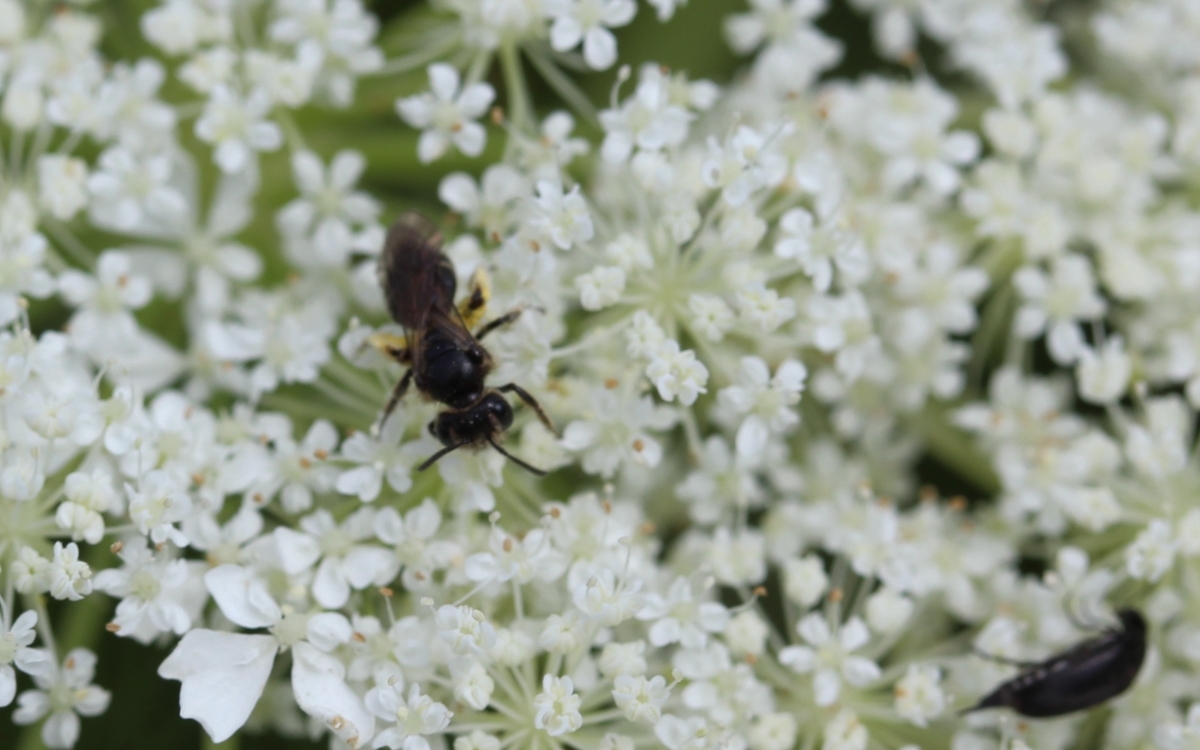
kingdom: Animalia
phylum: Arthropoda
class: Insecta
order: Hymenoptera
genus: Micrandrena
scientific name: Micrandrena
